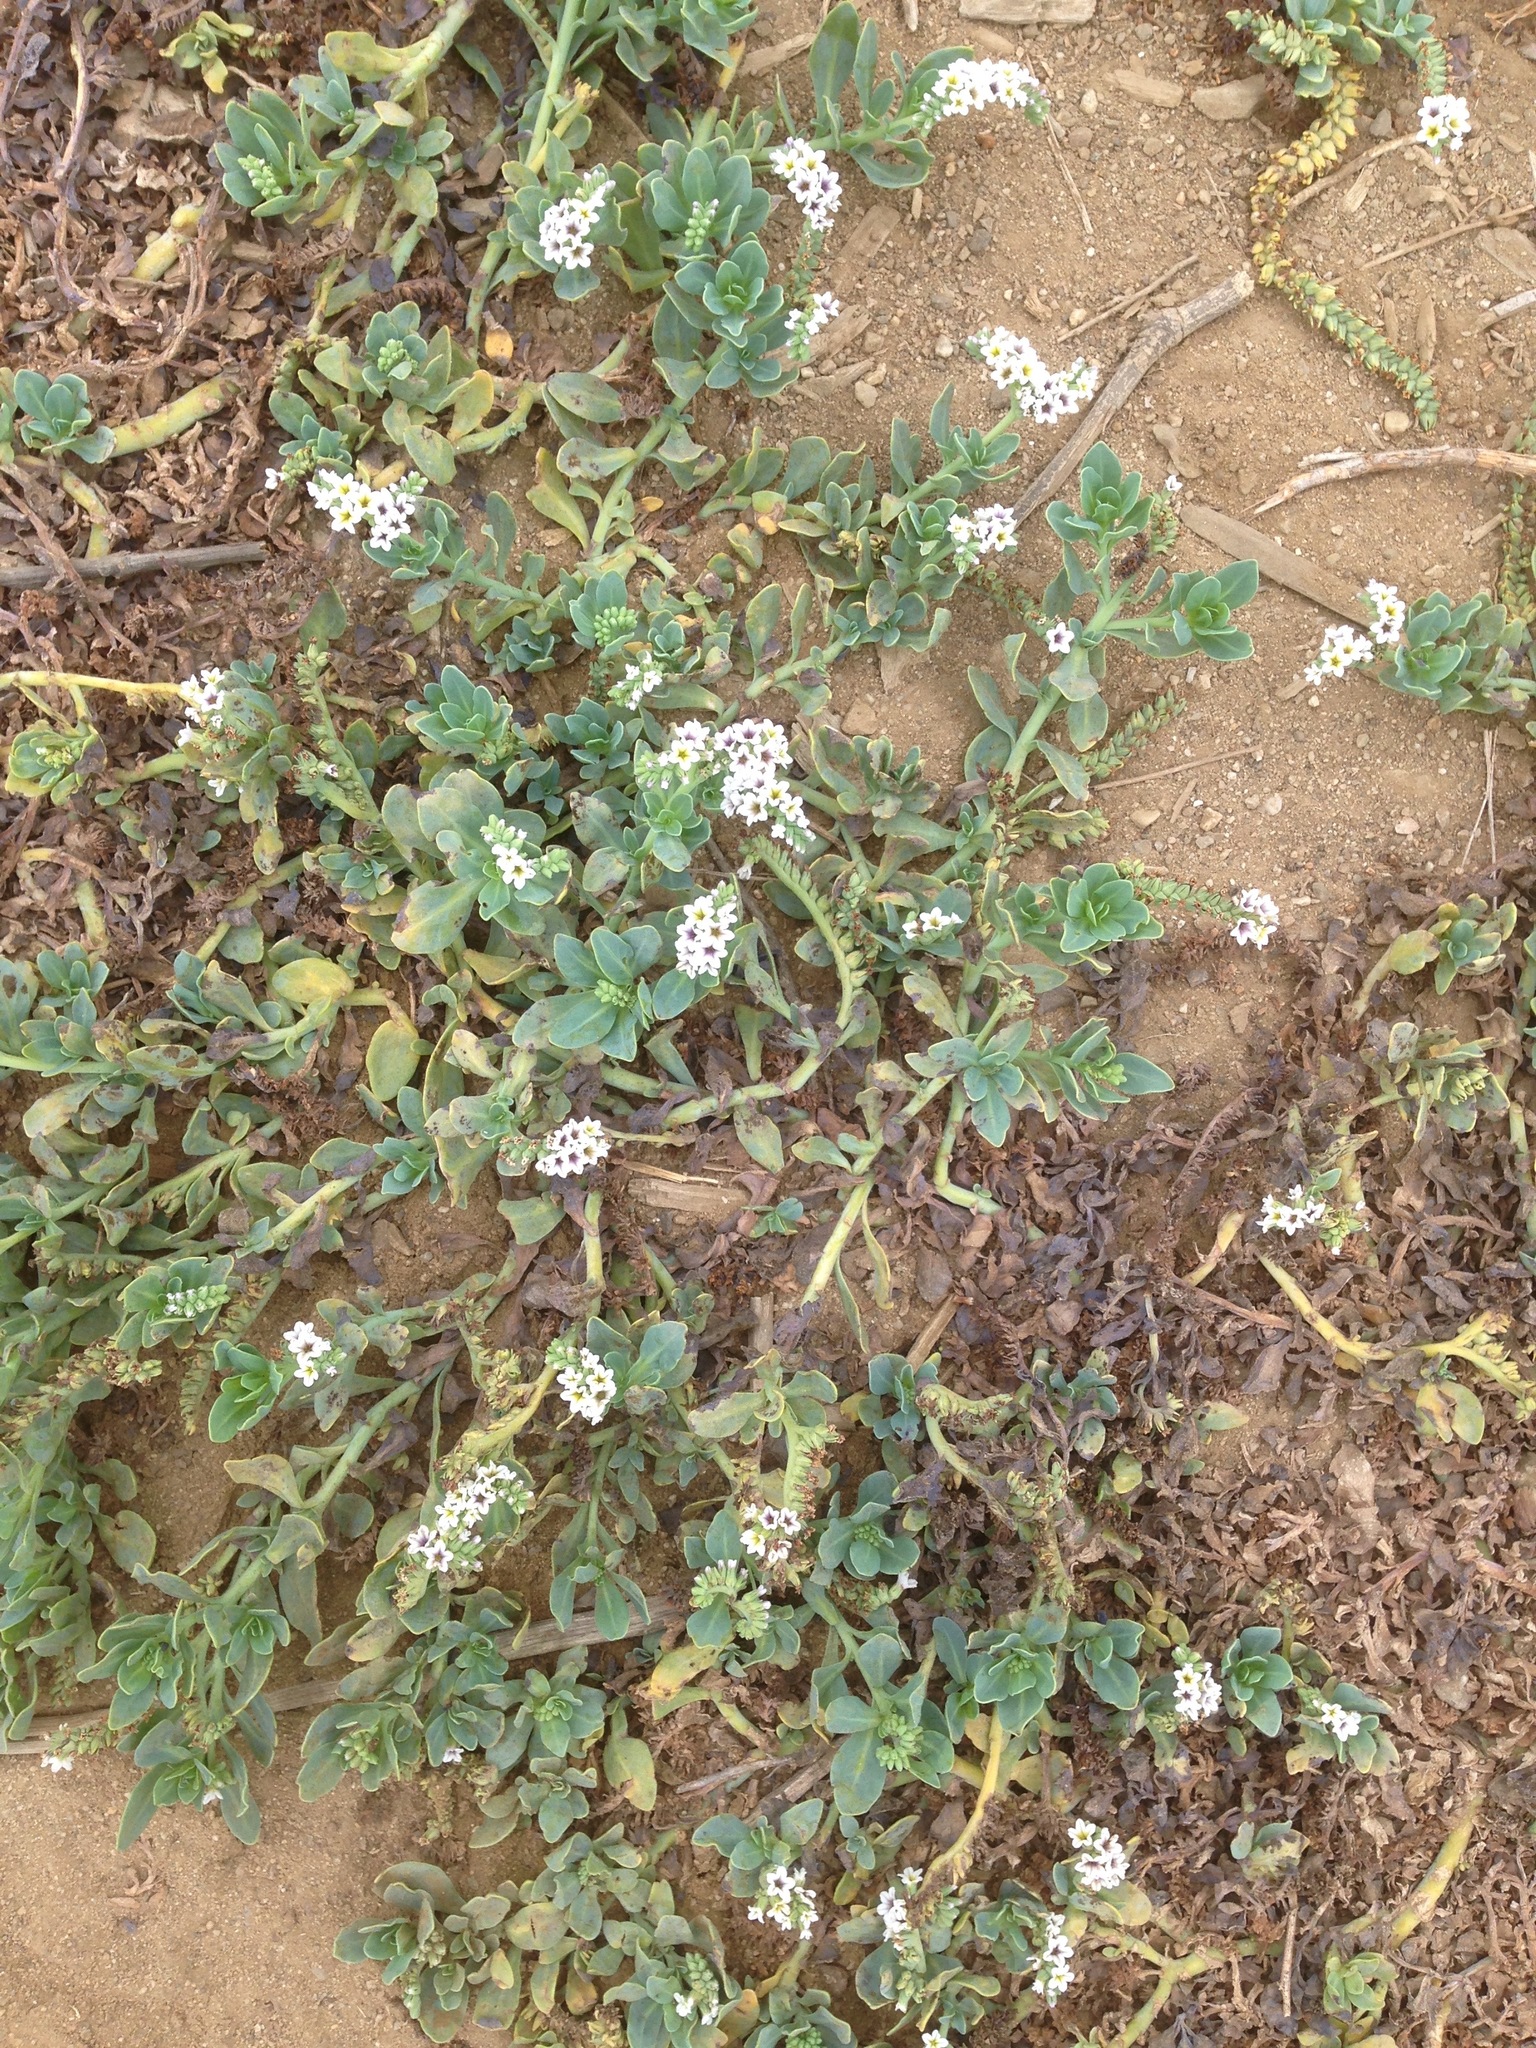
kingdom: Plantae
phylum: Tracheophyta
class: Magnoliopsida
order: Boraginales
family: Heliotropiaceae
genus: Heliotropium
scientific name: Heliotropium curassavicum
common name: Seaside heliotrope
